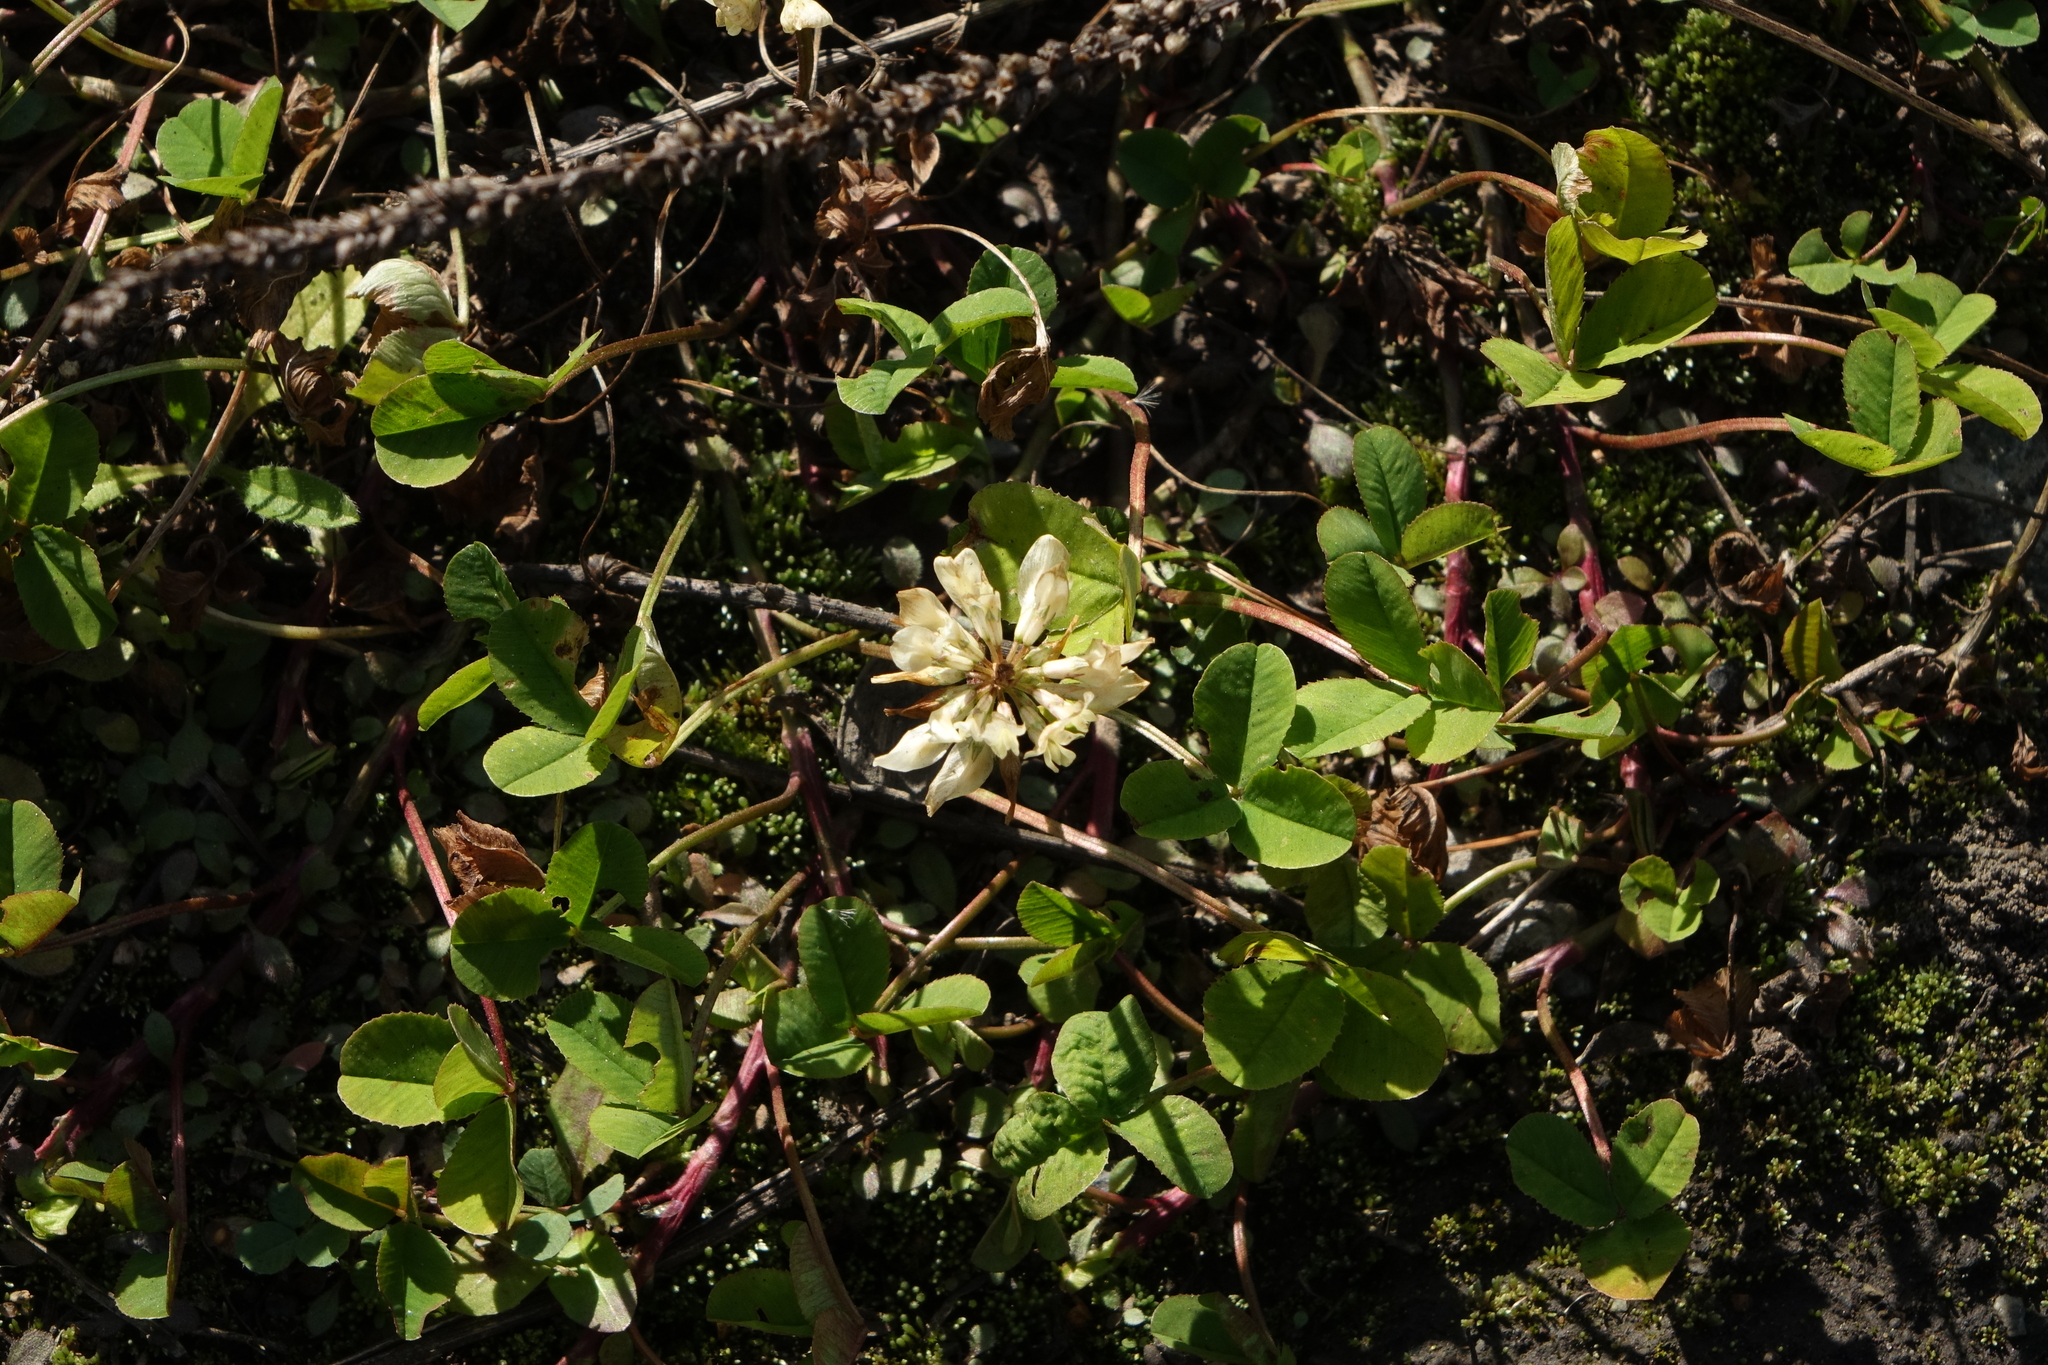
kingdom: Plantae
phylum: Tracheophyta
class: Magnoliopsida
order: Fabales
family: Fabaceae
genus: Trifolium
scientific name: Trifolium repens
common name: White clover
